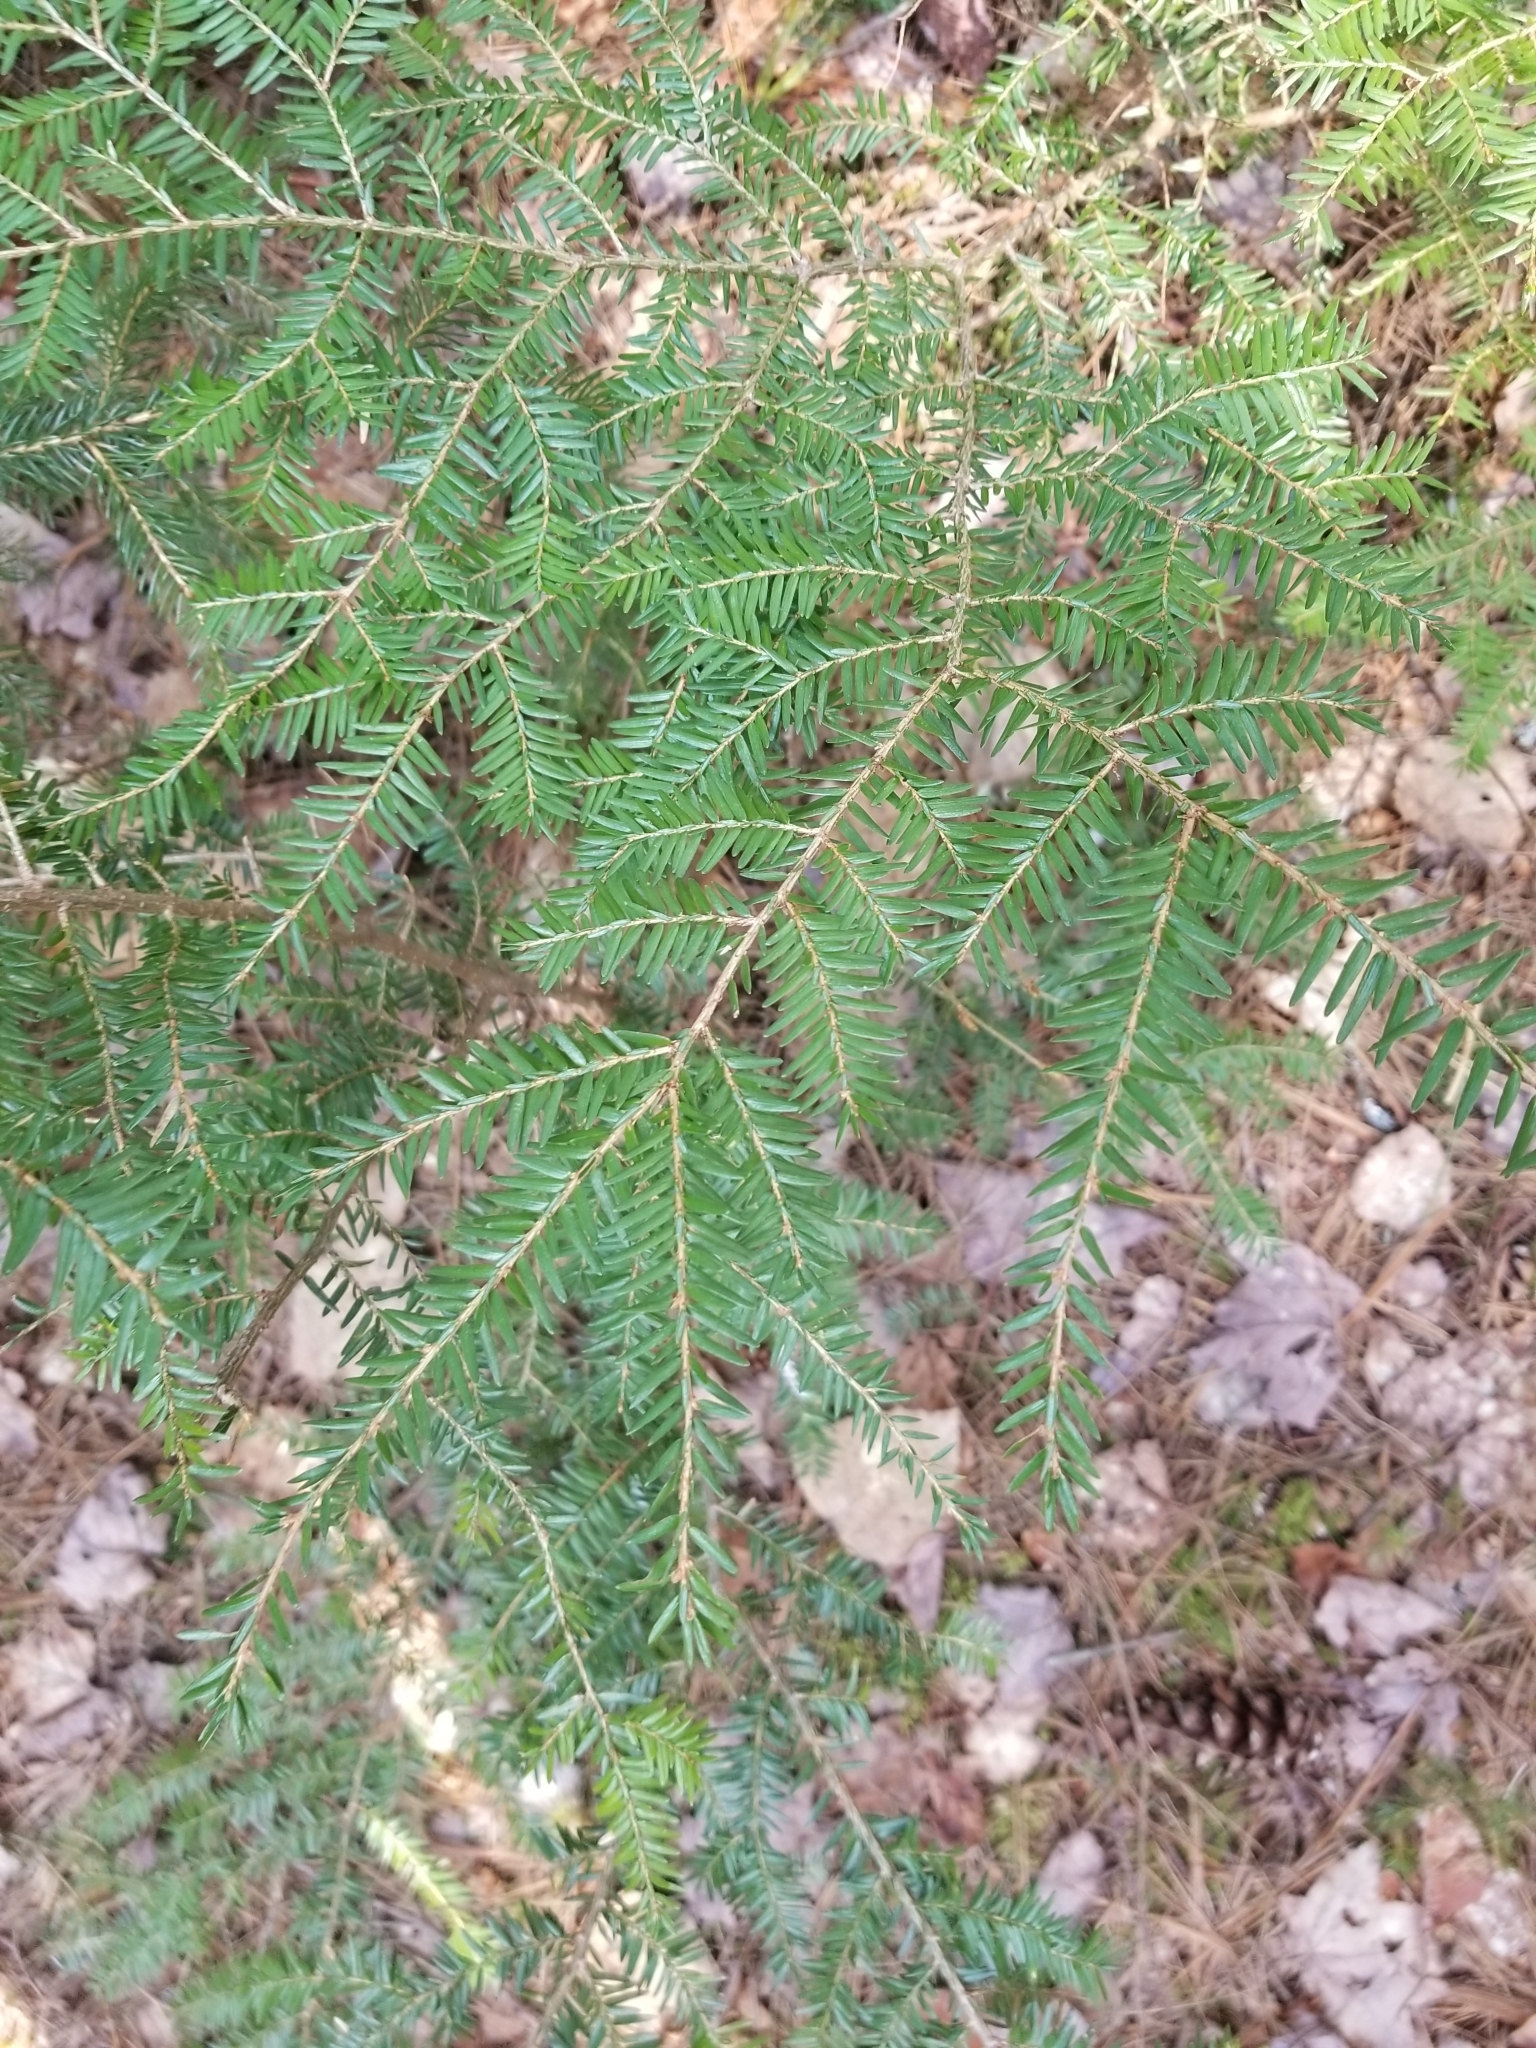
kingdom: Plantae
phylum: Tracheophyta
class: Pinopsida
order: Pinales
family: Pinaceae
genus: Tsuga
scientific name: Tsuga canadensis
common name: Eastern hemlock
